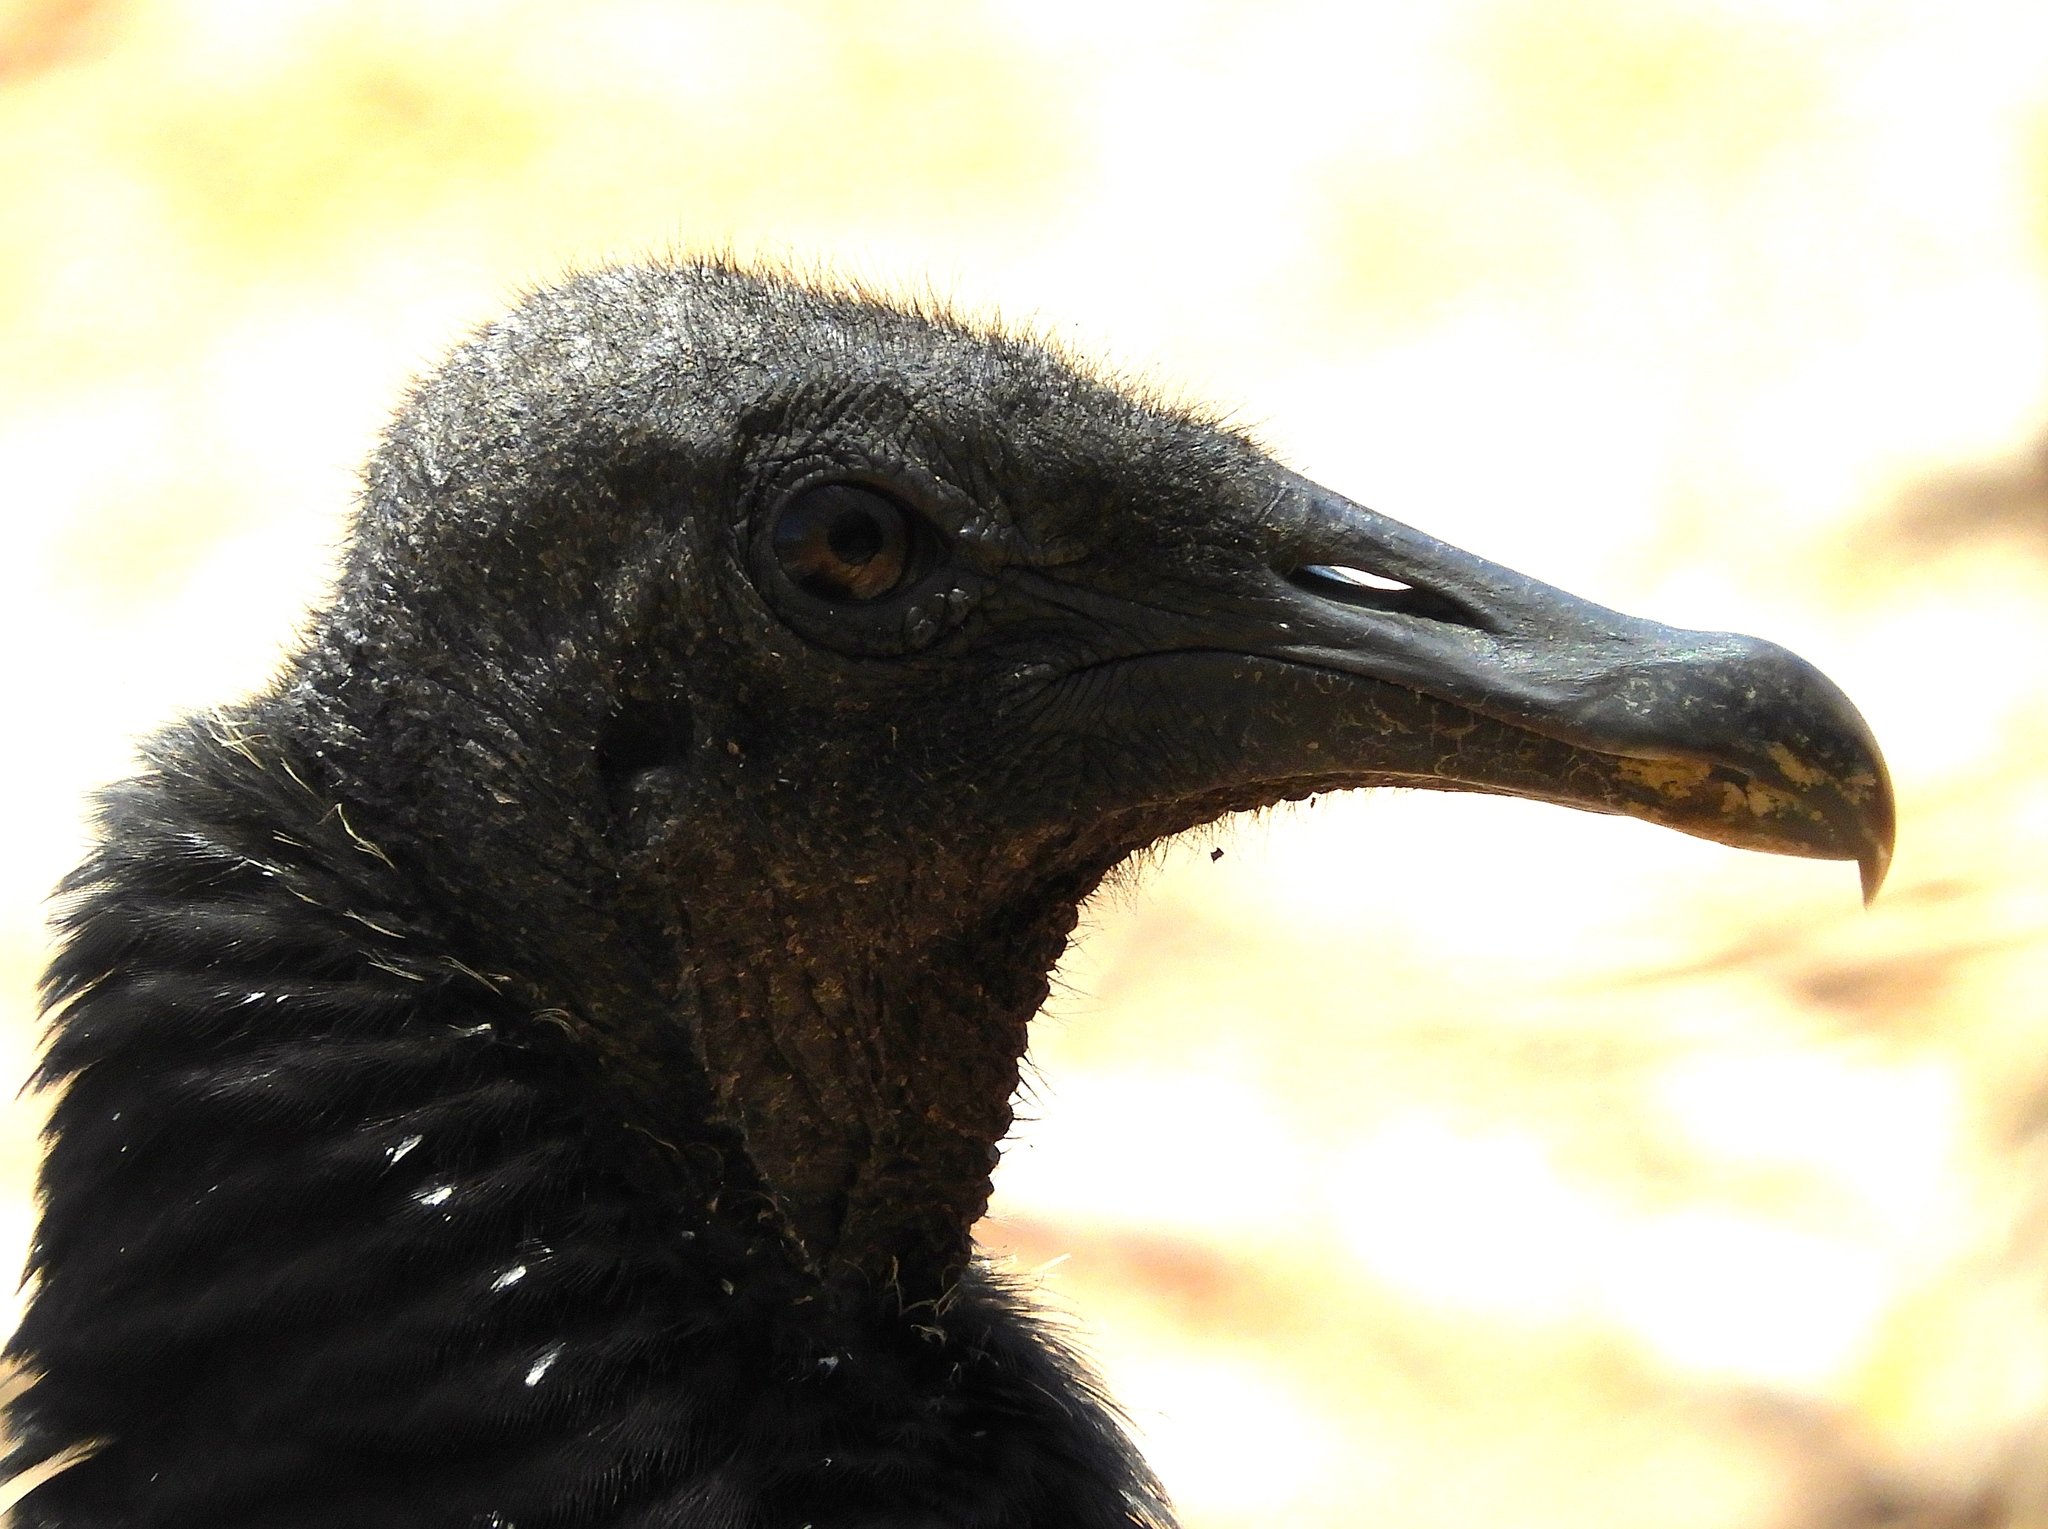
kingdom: Animalia
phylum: Chordata
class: Aves
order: Accipitriformes
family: Cathartidae
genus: Coragyps
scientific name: Coragyps atratus
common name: Black vulture
